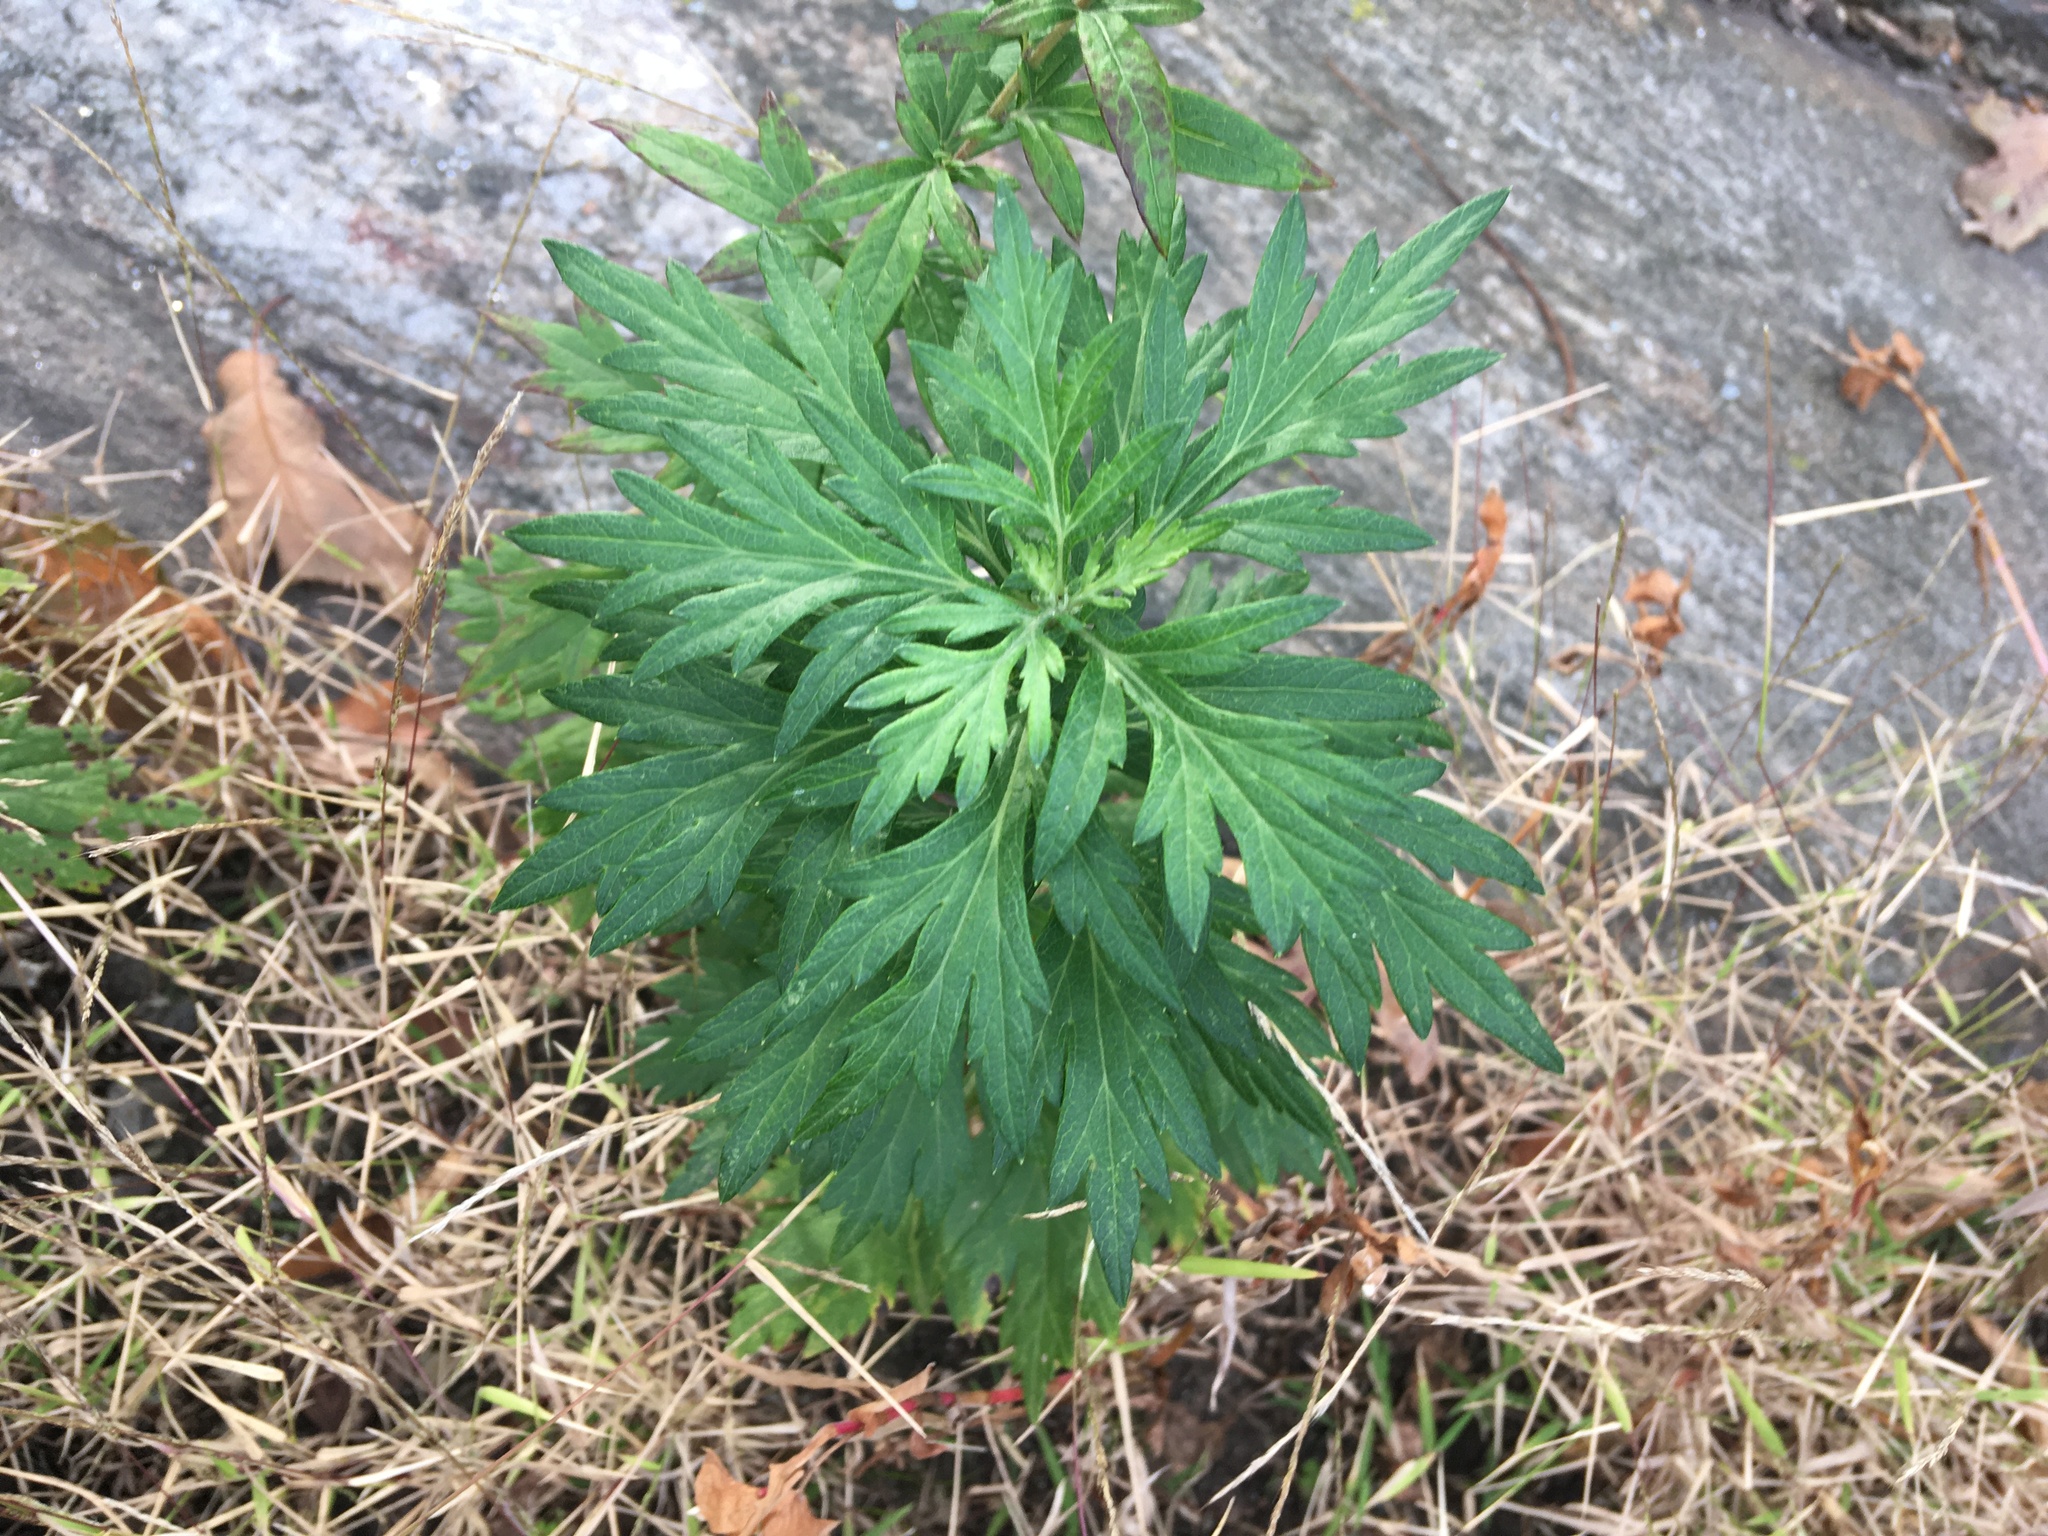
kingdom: Plantae
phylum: Tracheophyta
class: Magnoliopsida
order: Asterales
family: Asteraceae
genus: Artemisia
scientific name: Artemisia vulgaris
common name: Mugwort
